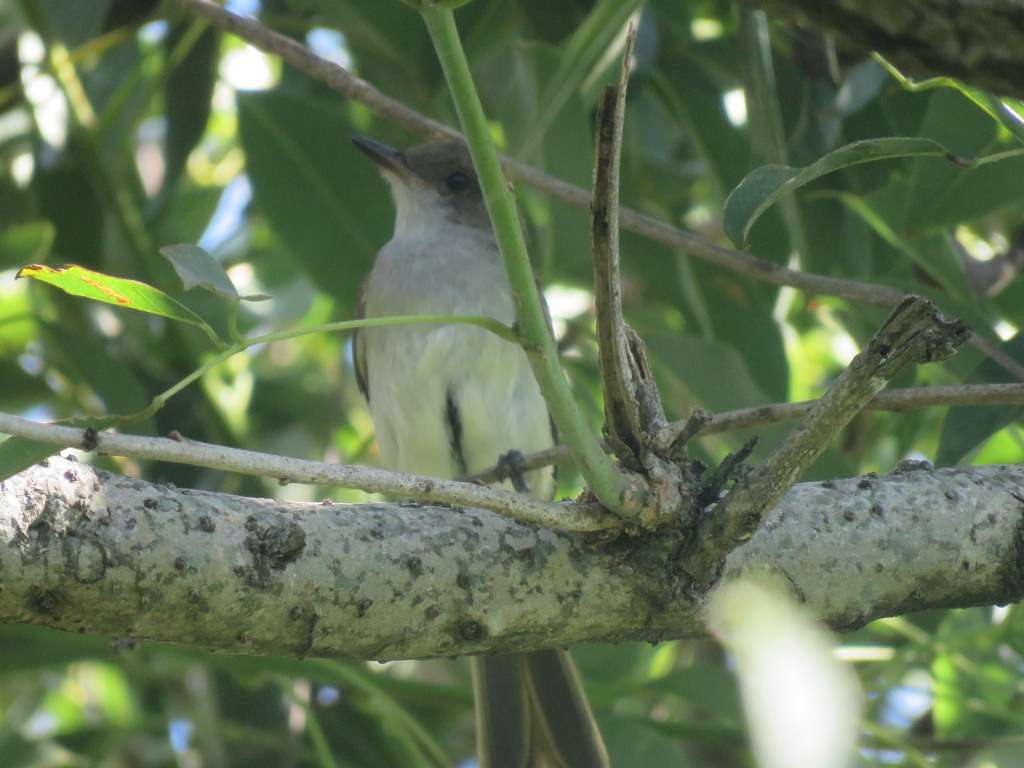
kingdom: Animalia
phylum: Chordata
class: Aves
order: Passeriformes
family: Tyrannidae
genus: Myiarchus
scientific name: Myiarchus swainsoni
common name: Swainson's flycatcher
